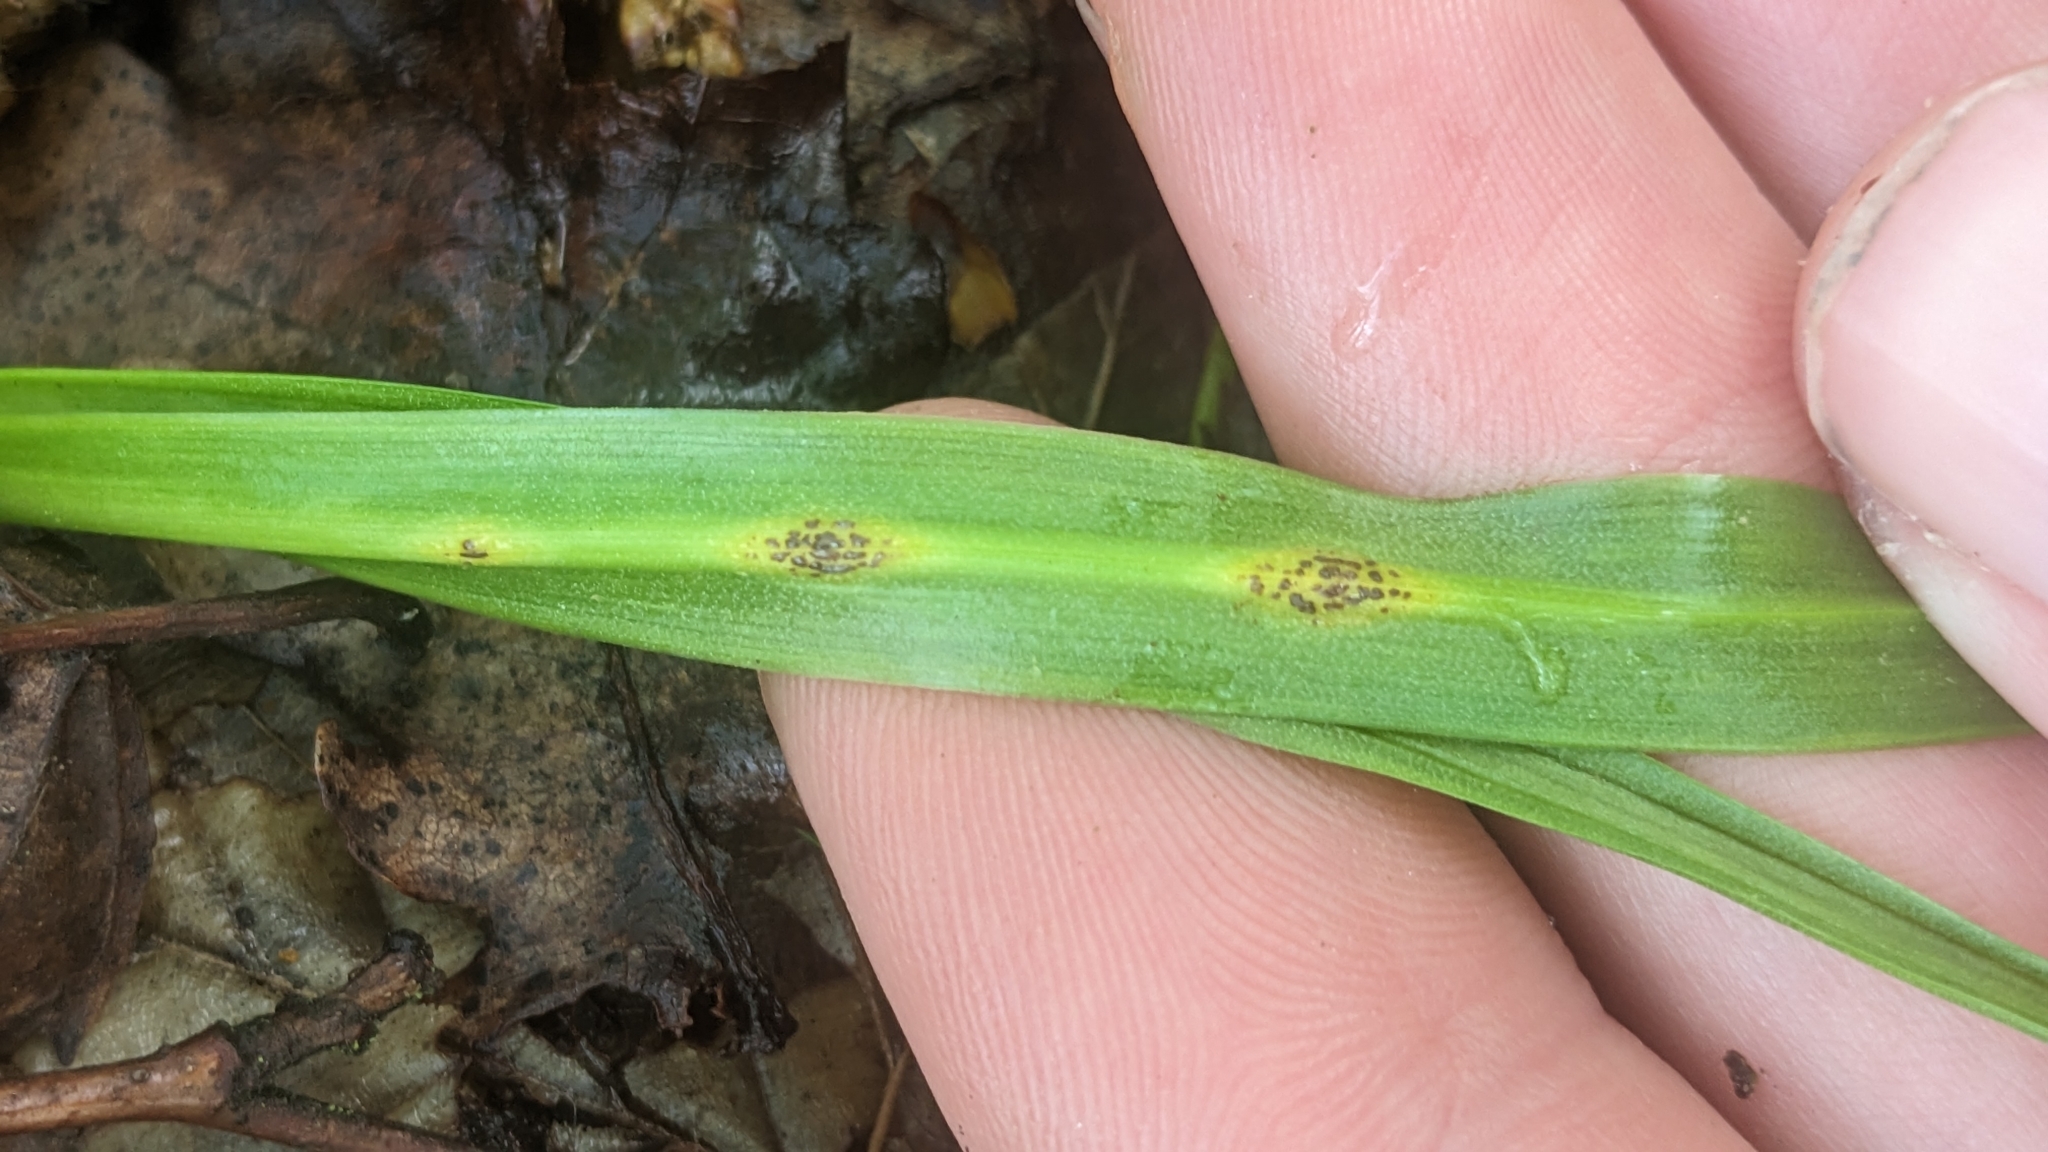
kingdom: Fungi
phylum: Basidiomycota
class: Pucciniomycetes
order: Pucciniales
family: Pucciniaceae
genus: Uromyces
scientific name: Uromyces hyacinthi
